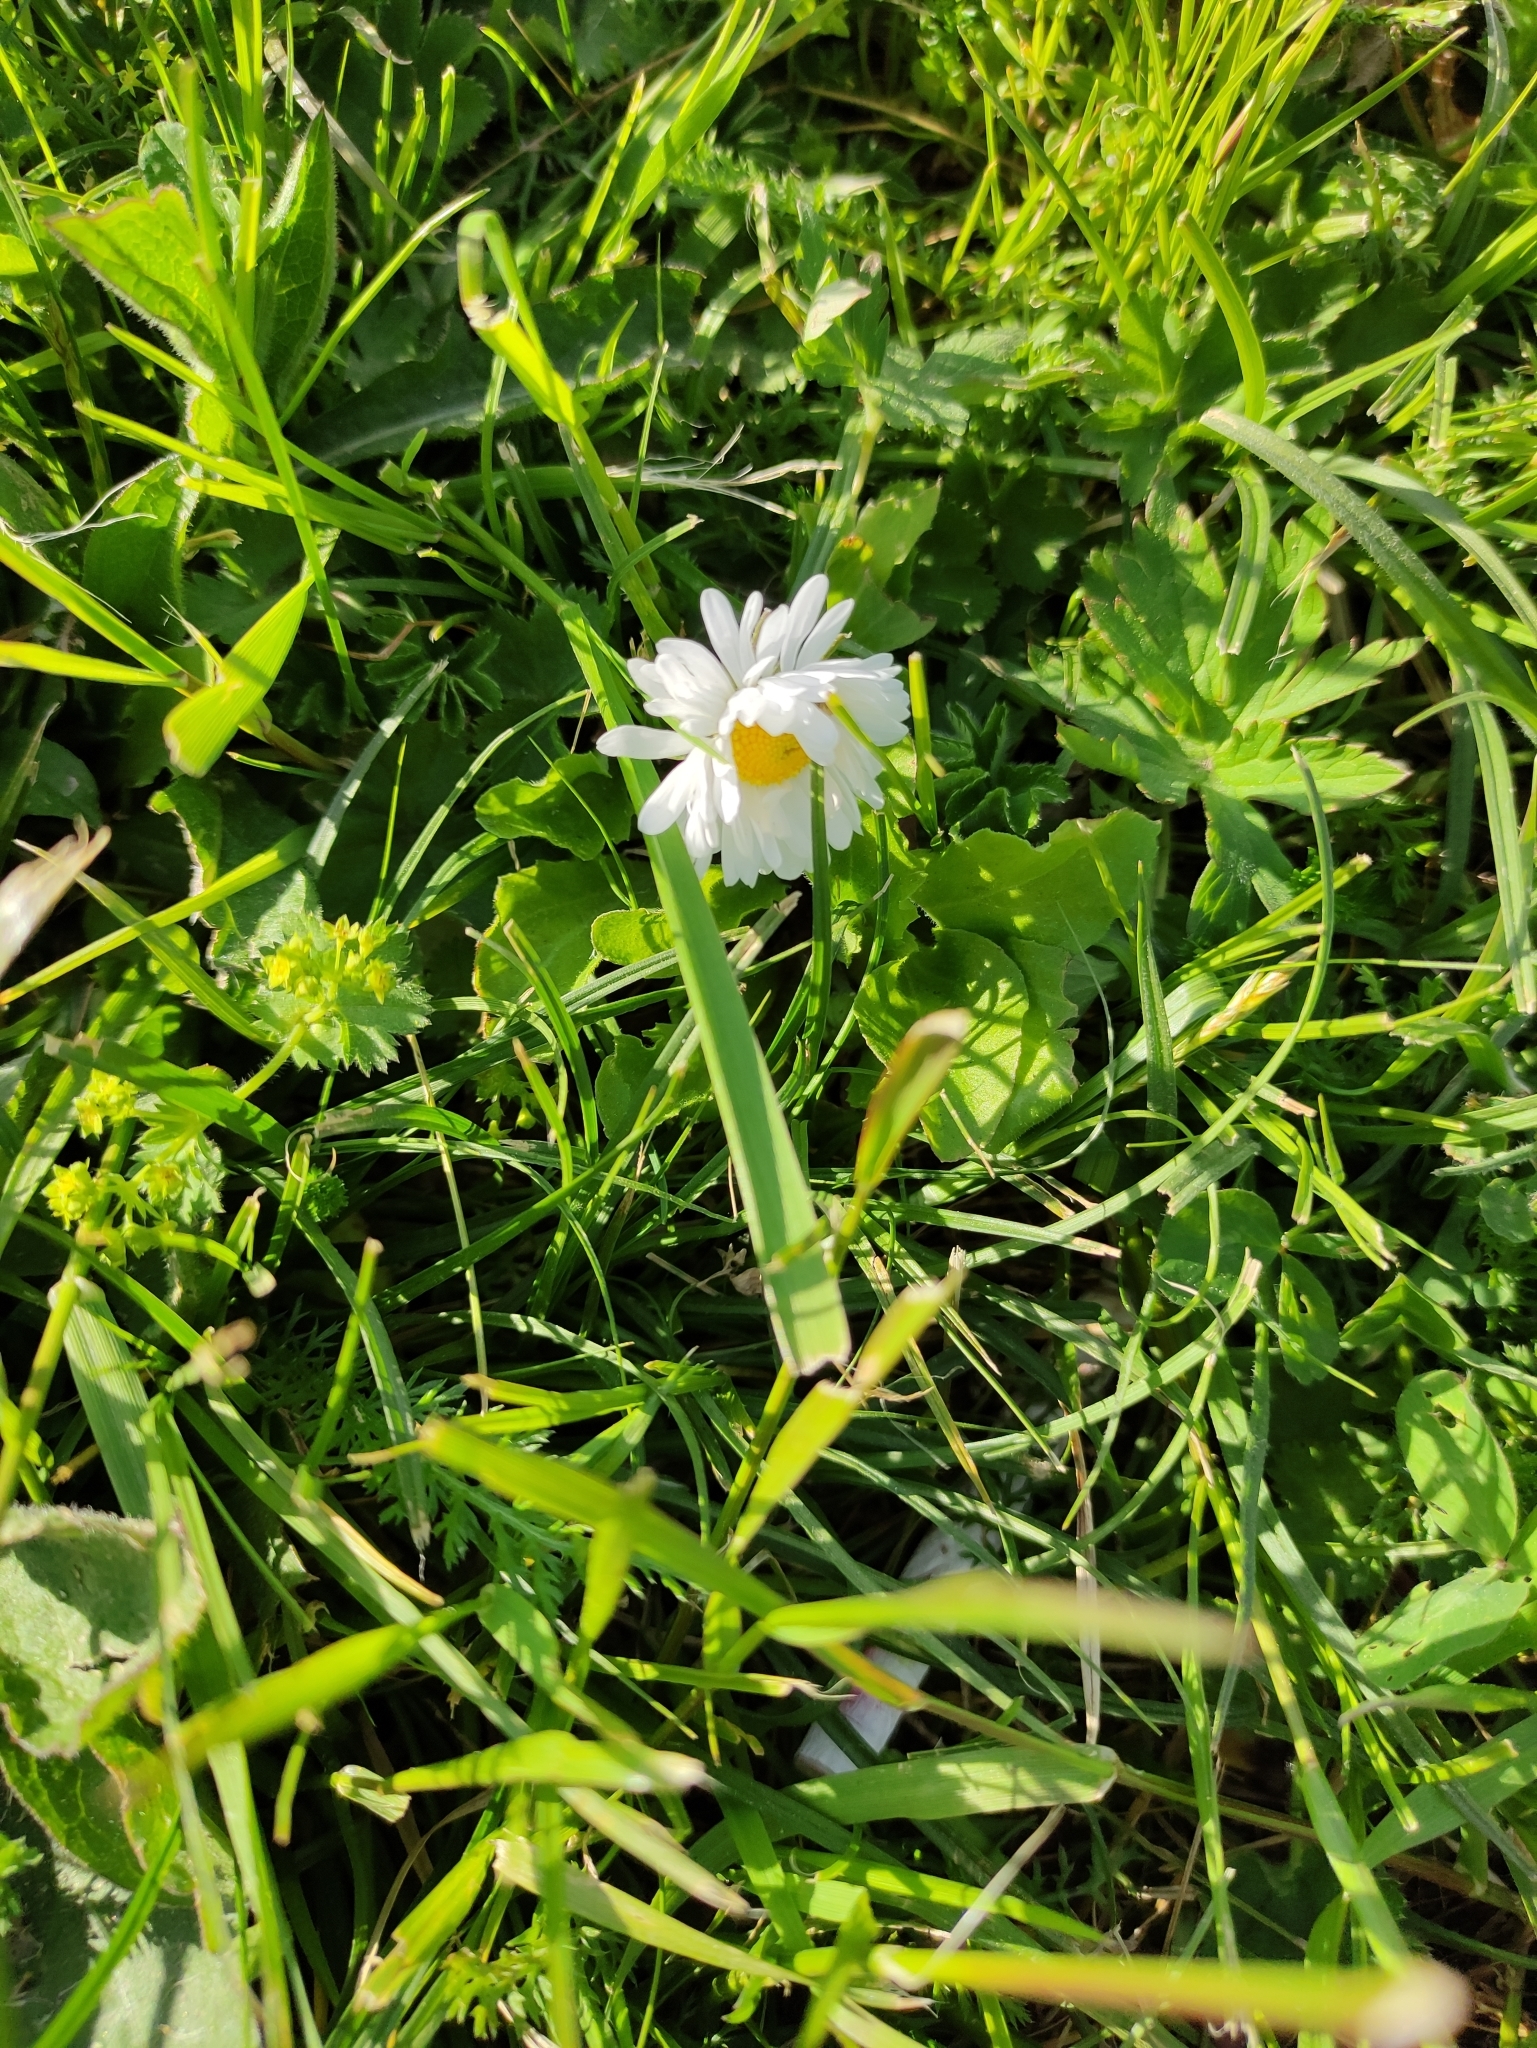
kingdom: Plantae
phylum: Tracheophyta
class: Magnoliopsida
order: Asterales
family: Asteraceae
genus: Bellis
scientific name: Bellis perennis
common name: Lawndaisy
